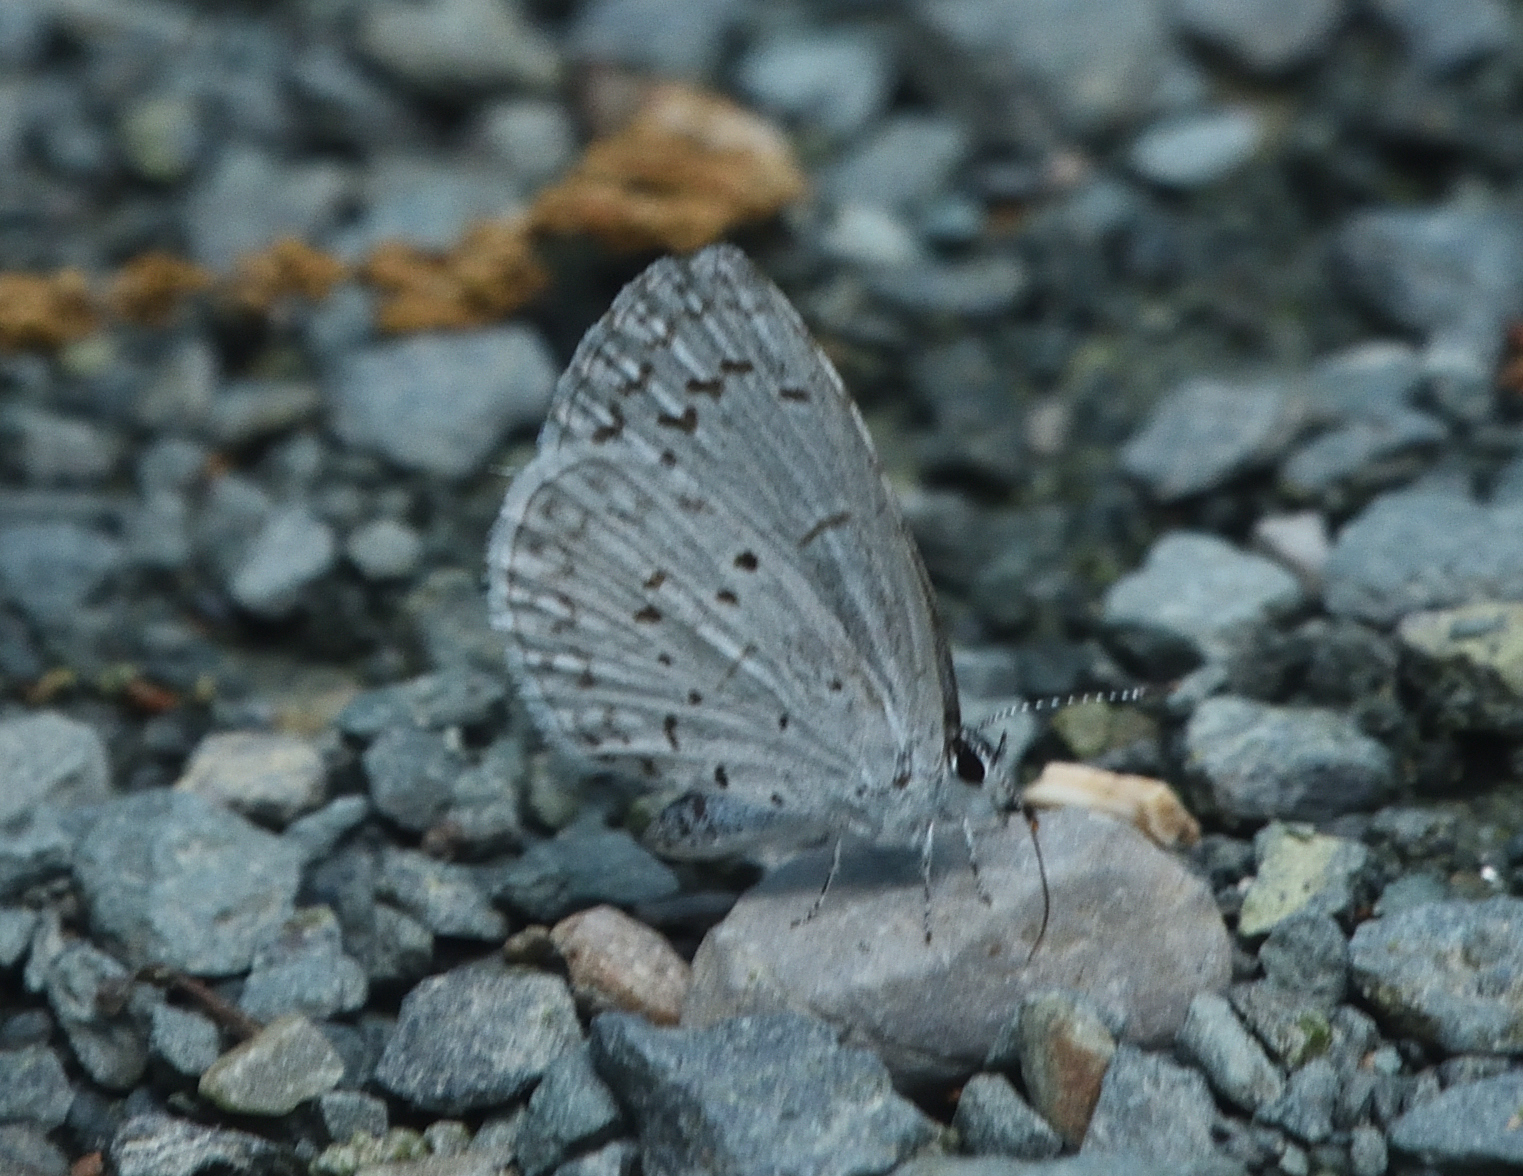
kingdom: Animalia
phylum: Arthropoda
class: Insecta
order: Lepidoptera
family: Lycaenidae
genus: Cyaniris
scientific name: Cyaniris neglecta
